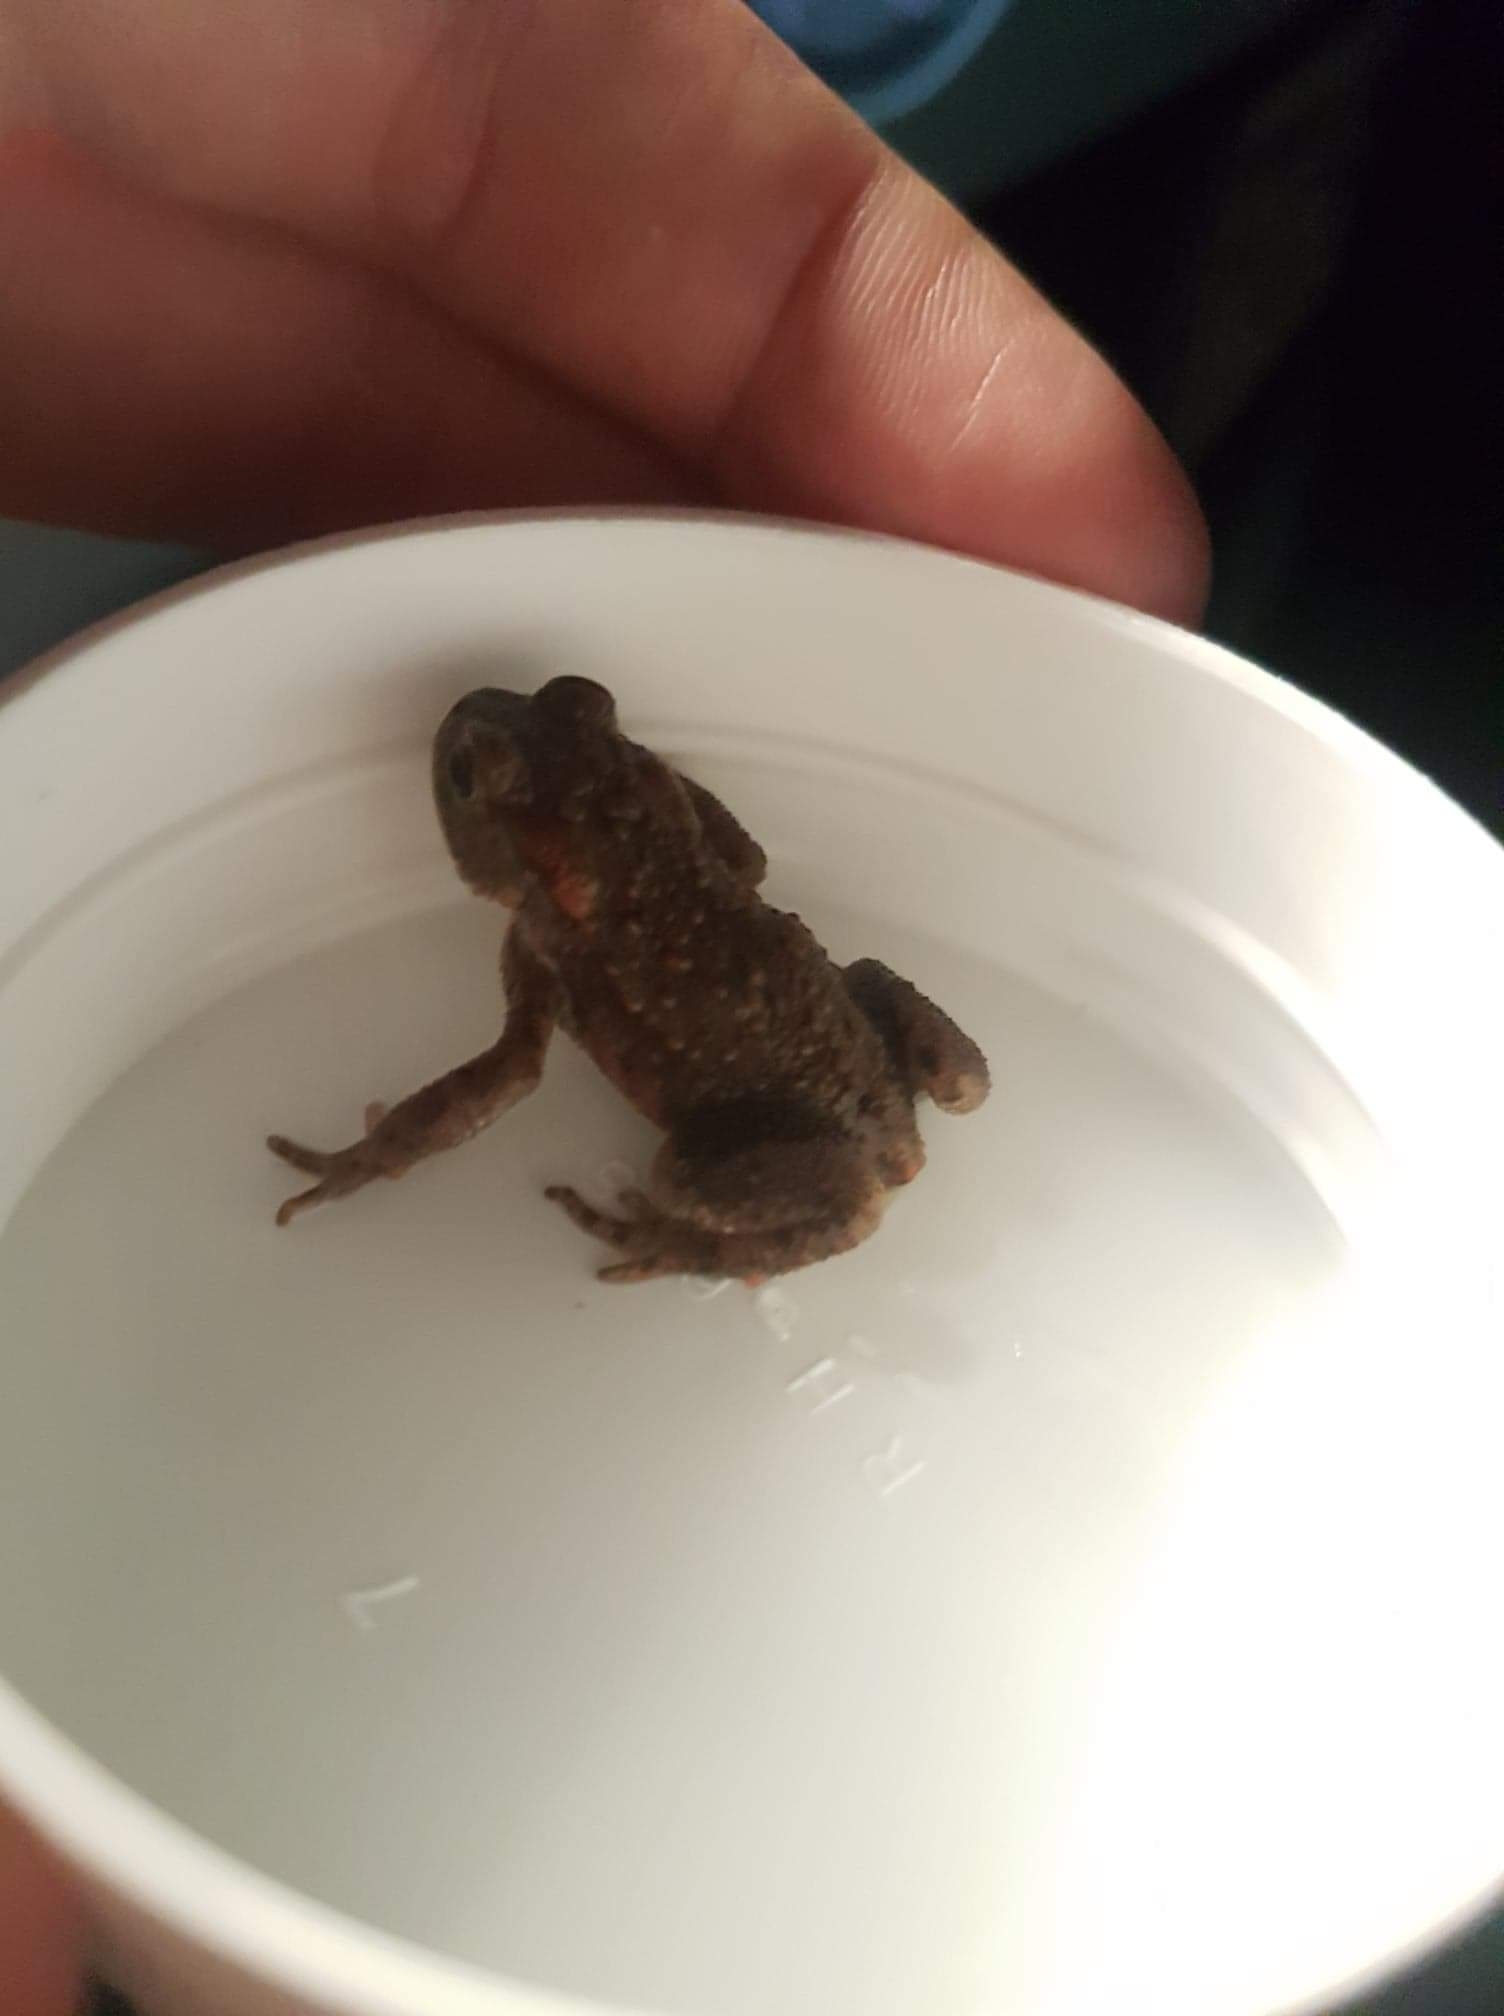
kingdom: Animalia
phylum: Chordata
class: Amphibia
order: Anura
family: Bufonidae
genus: Bufo
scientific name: Bufo bufo
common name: Common toad
